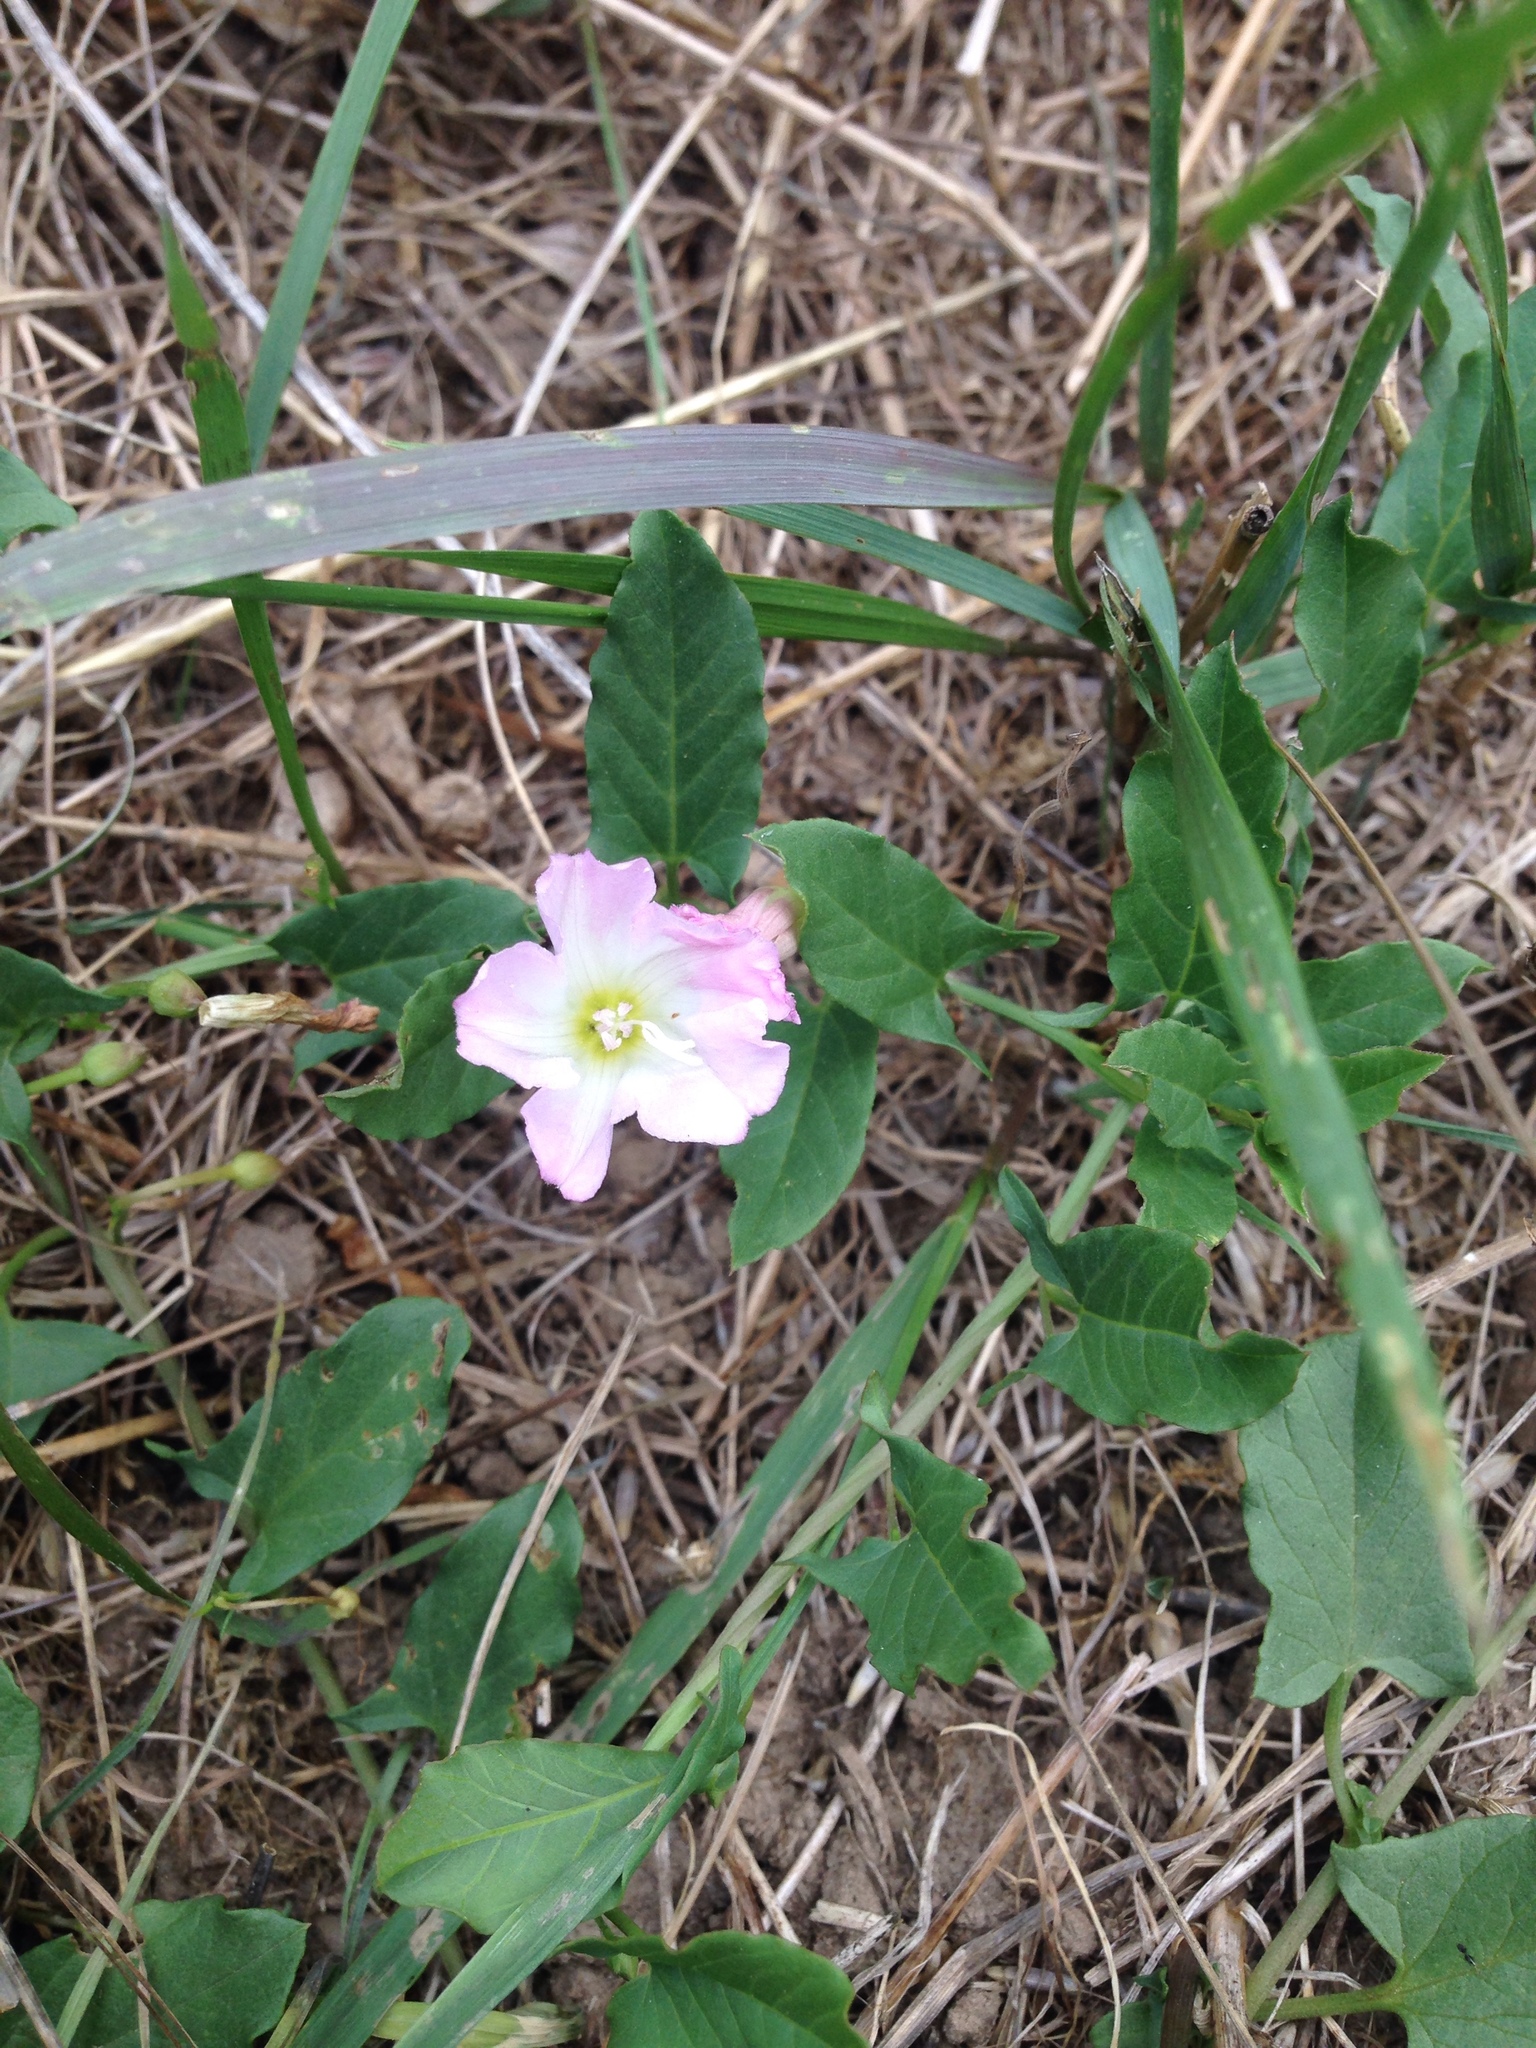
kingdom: Plantae
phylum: Tracheophyta
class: Magnoliopsida
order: Solanales
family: Convolvulaceae
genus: Convolvulus
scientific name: Convolvulus arvensis
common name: Field bindweed
